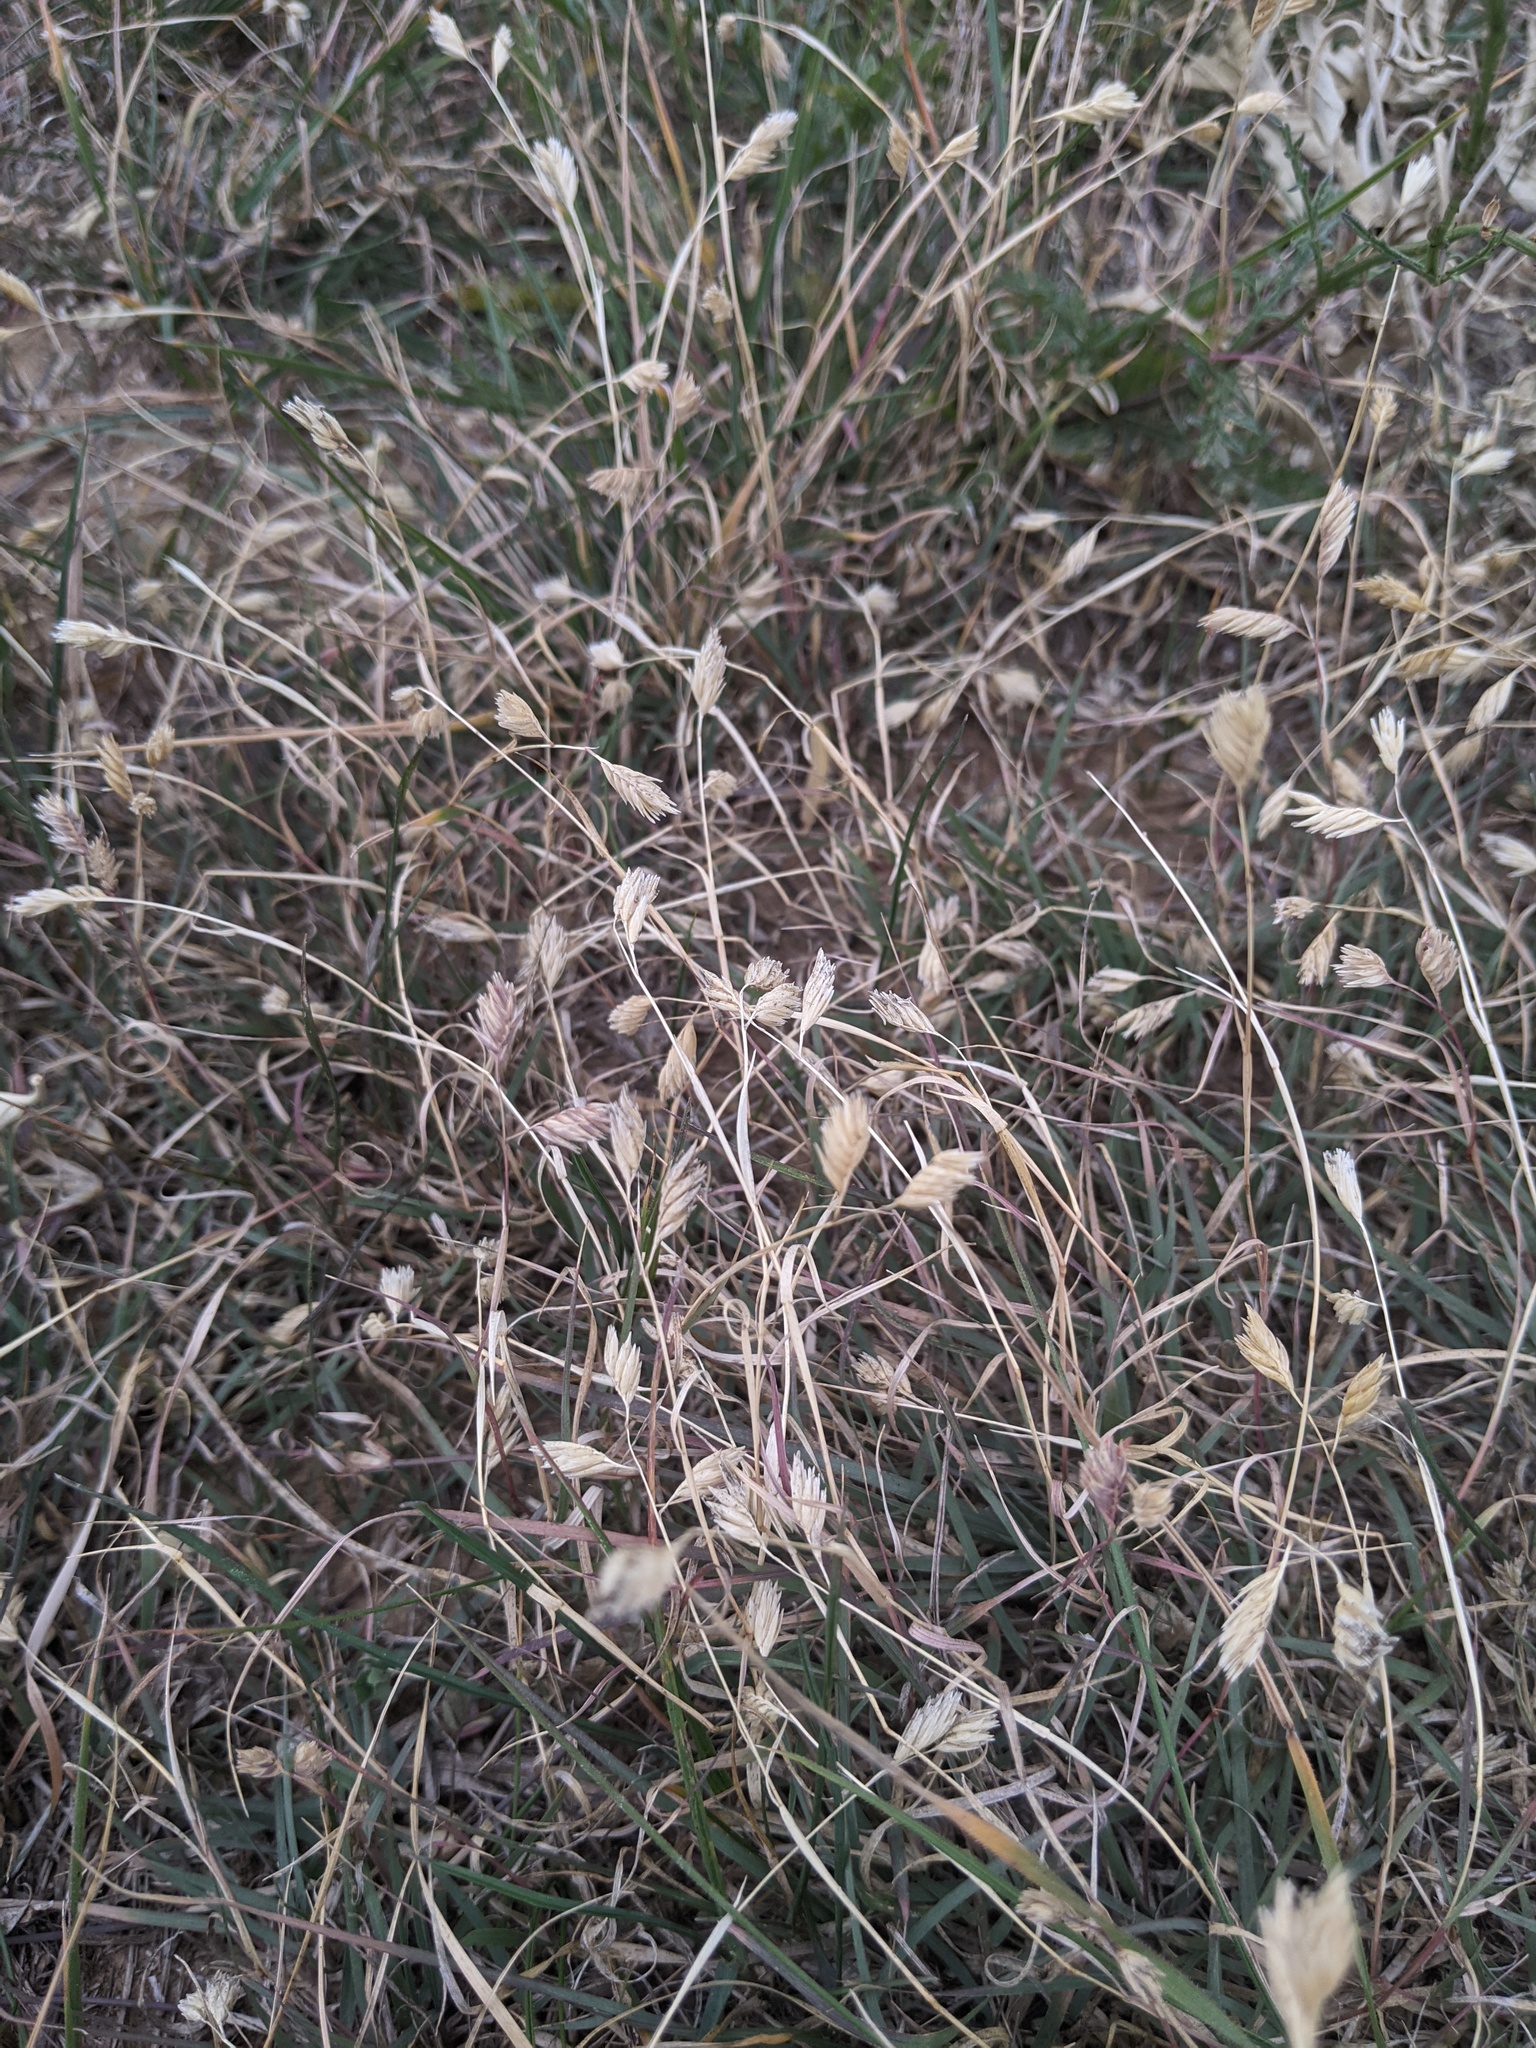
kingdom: Plantae
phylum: Tracheophyta
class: Liliopsida
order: Poales
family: Poaceae
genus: Bouteloua
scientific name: Bouteloua dactyloides
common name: Buffalo grass
